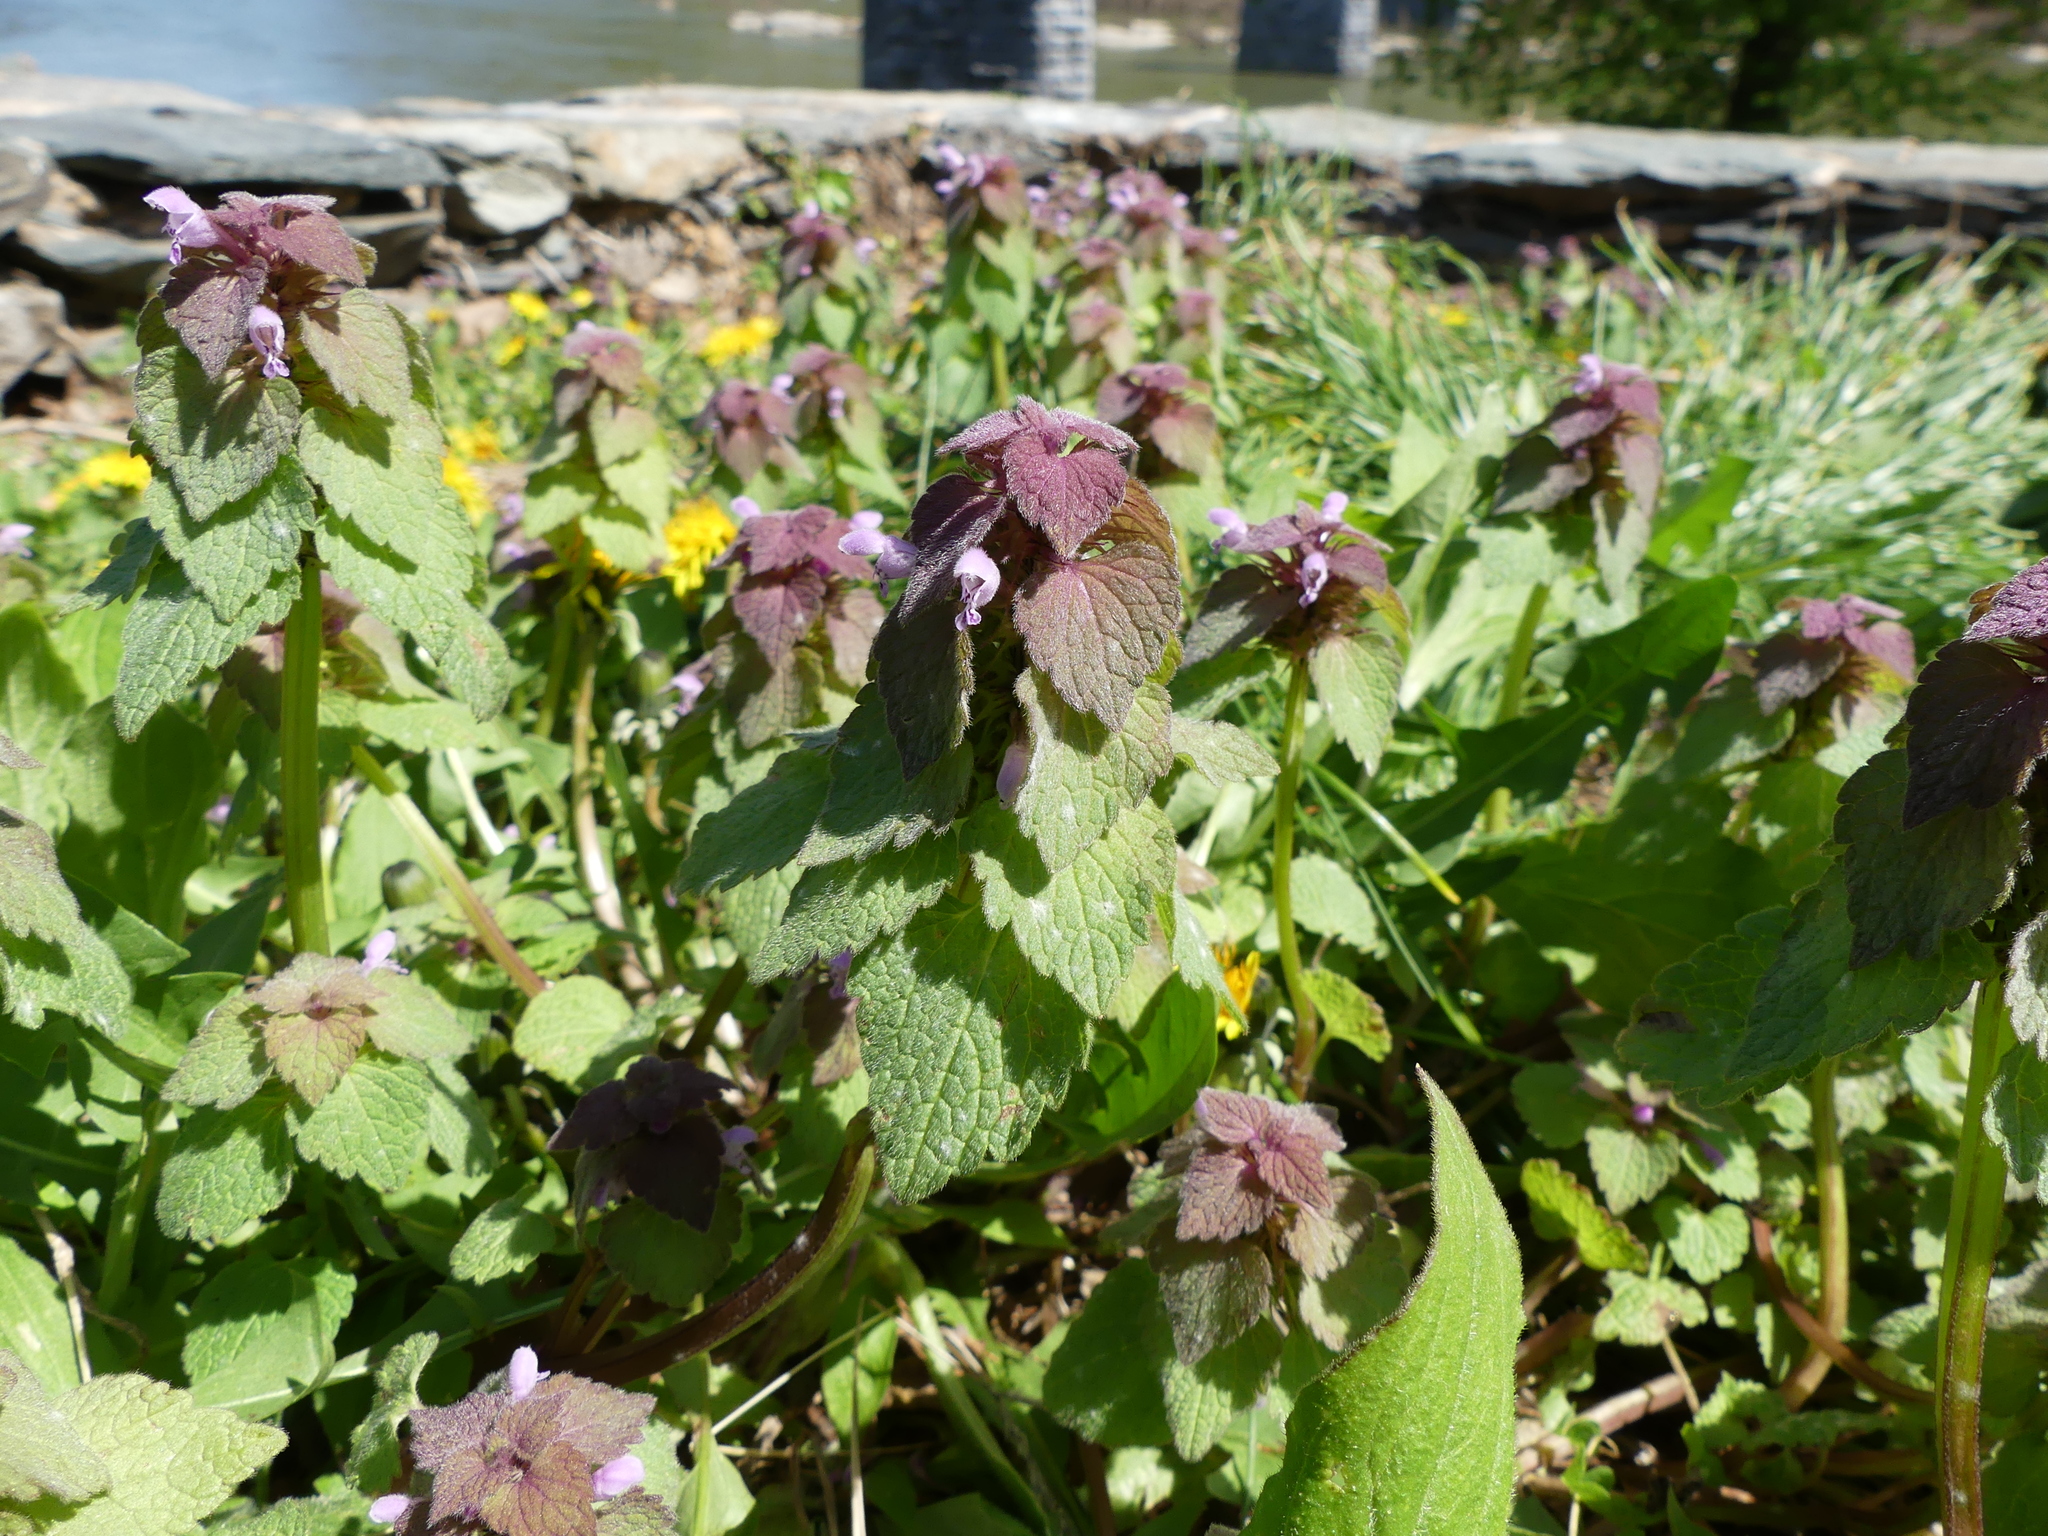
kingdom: Plantae
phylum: Tracheophyta
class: Magnoliopsida
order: Lamiales
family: Lamiaceae
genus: Lamium
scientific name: Lamium purpureum
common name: Red dead-nettle
